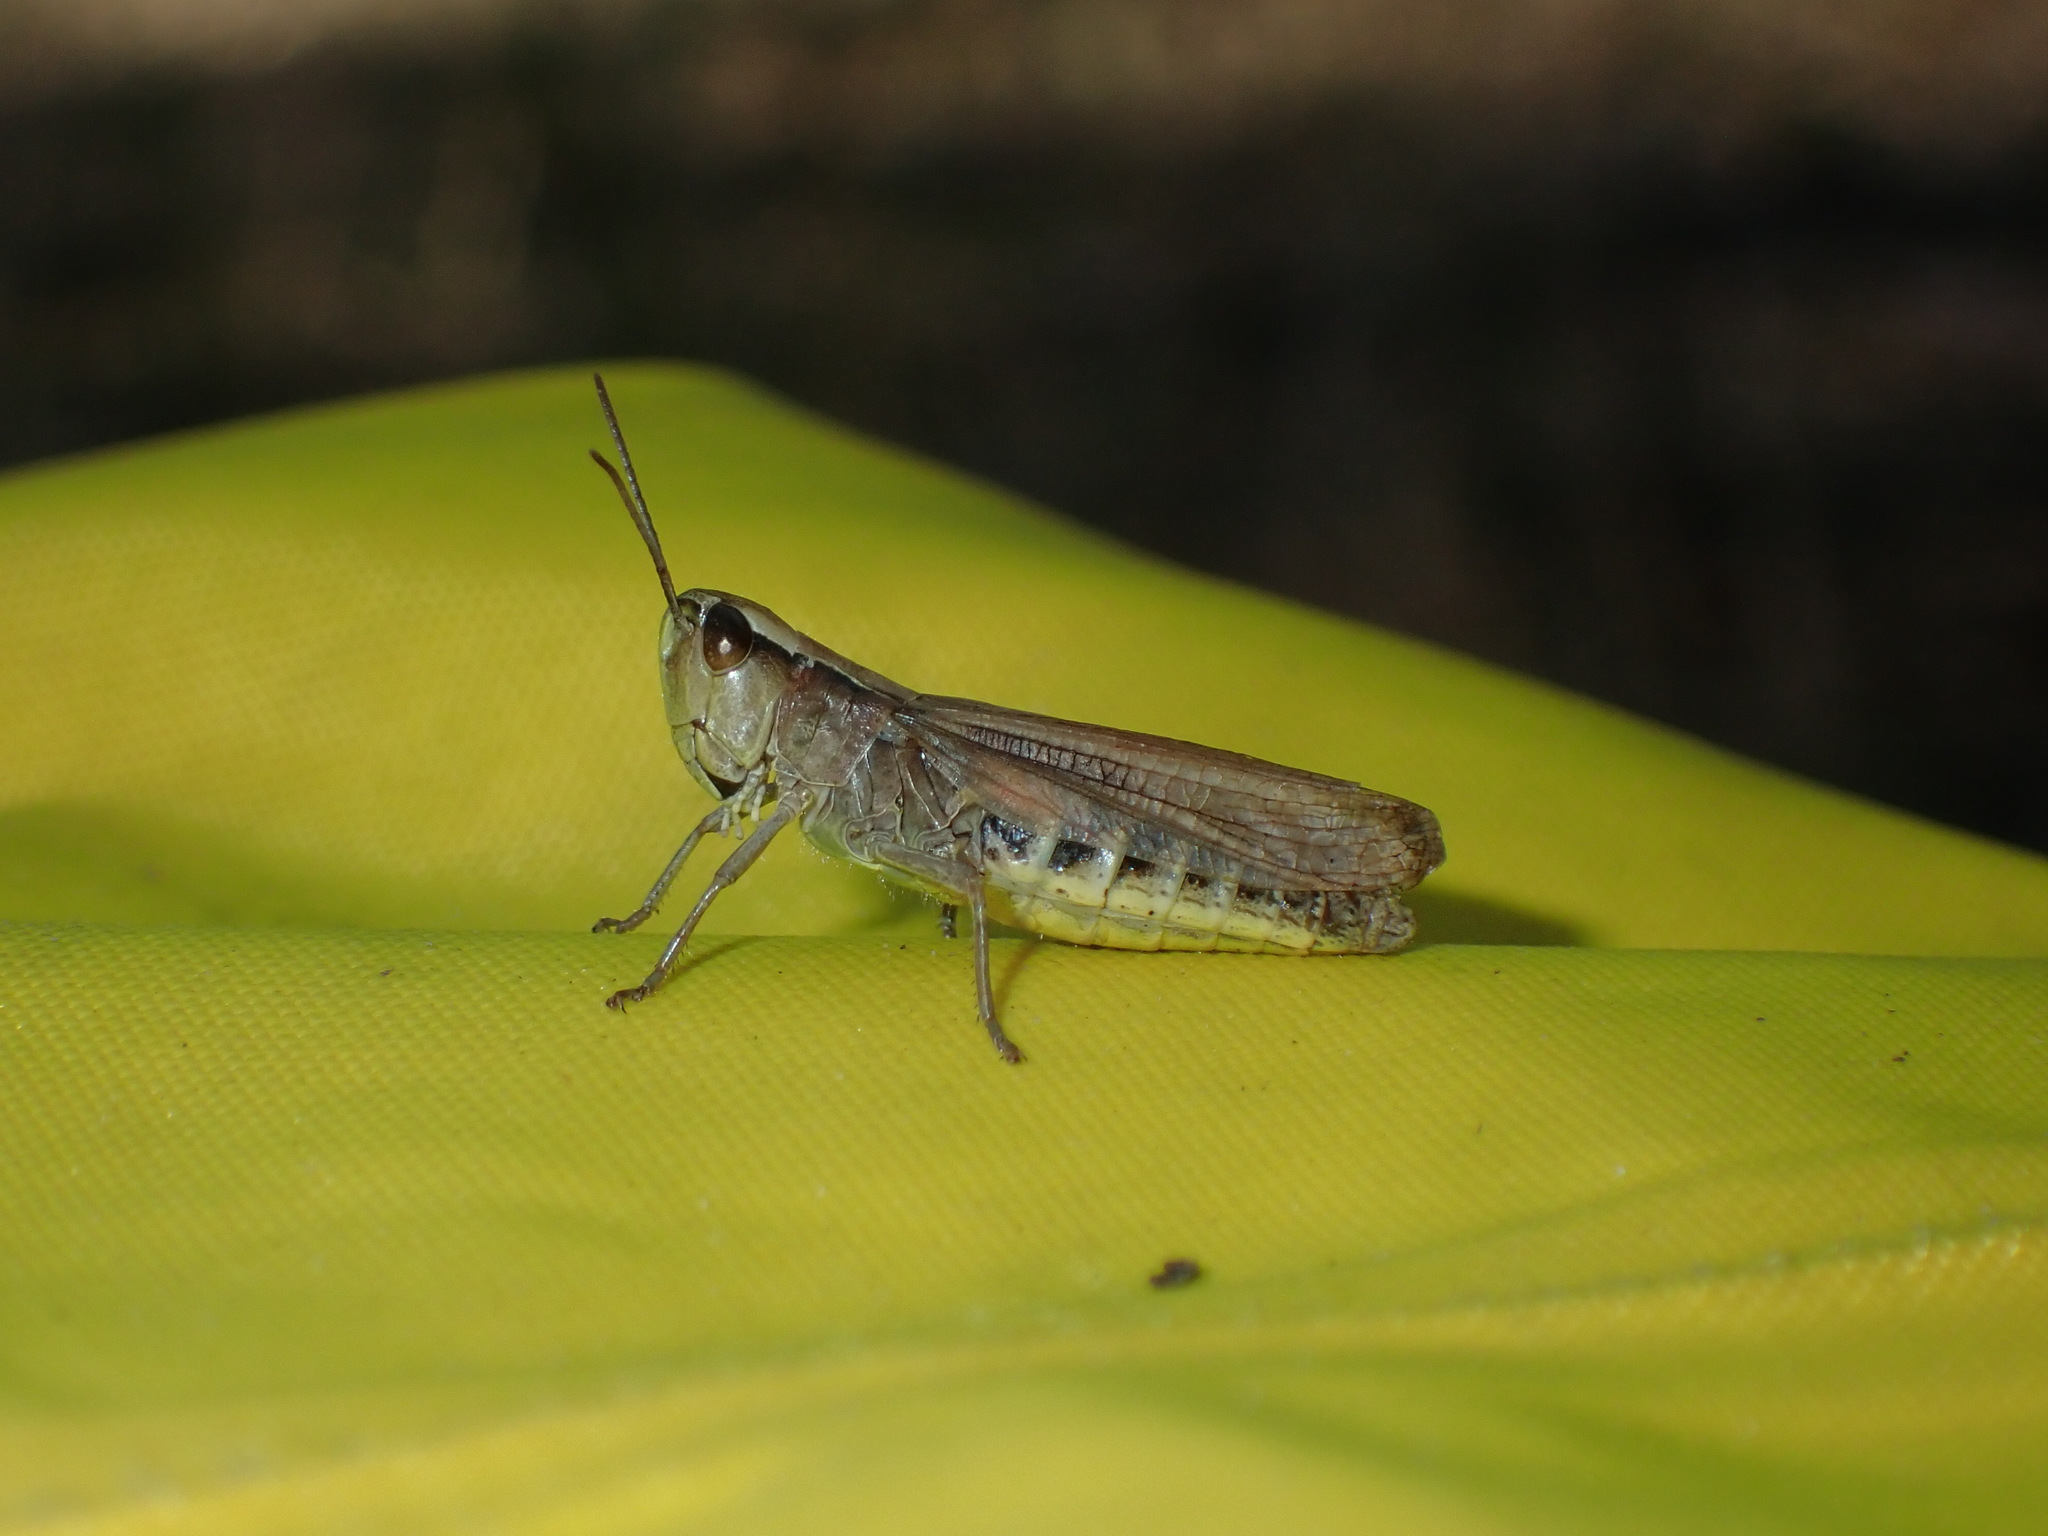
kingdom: Animalia
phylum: Arthropoda
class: Insecta
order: Orthoptera
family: Acrididae
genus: Pseudochorthippus
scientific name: Pseudochorthippus parallelus
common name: Meadow grasshopper
